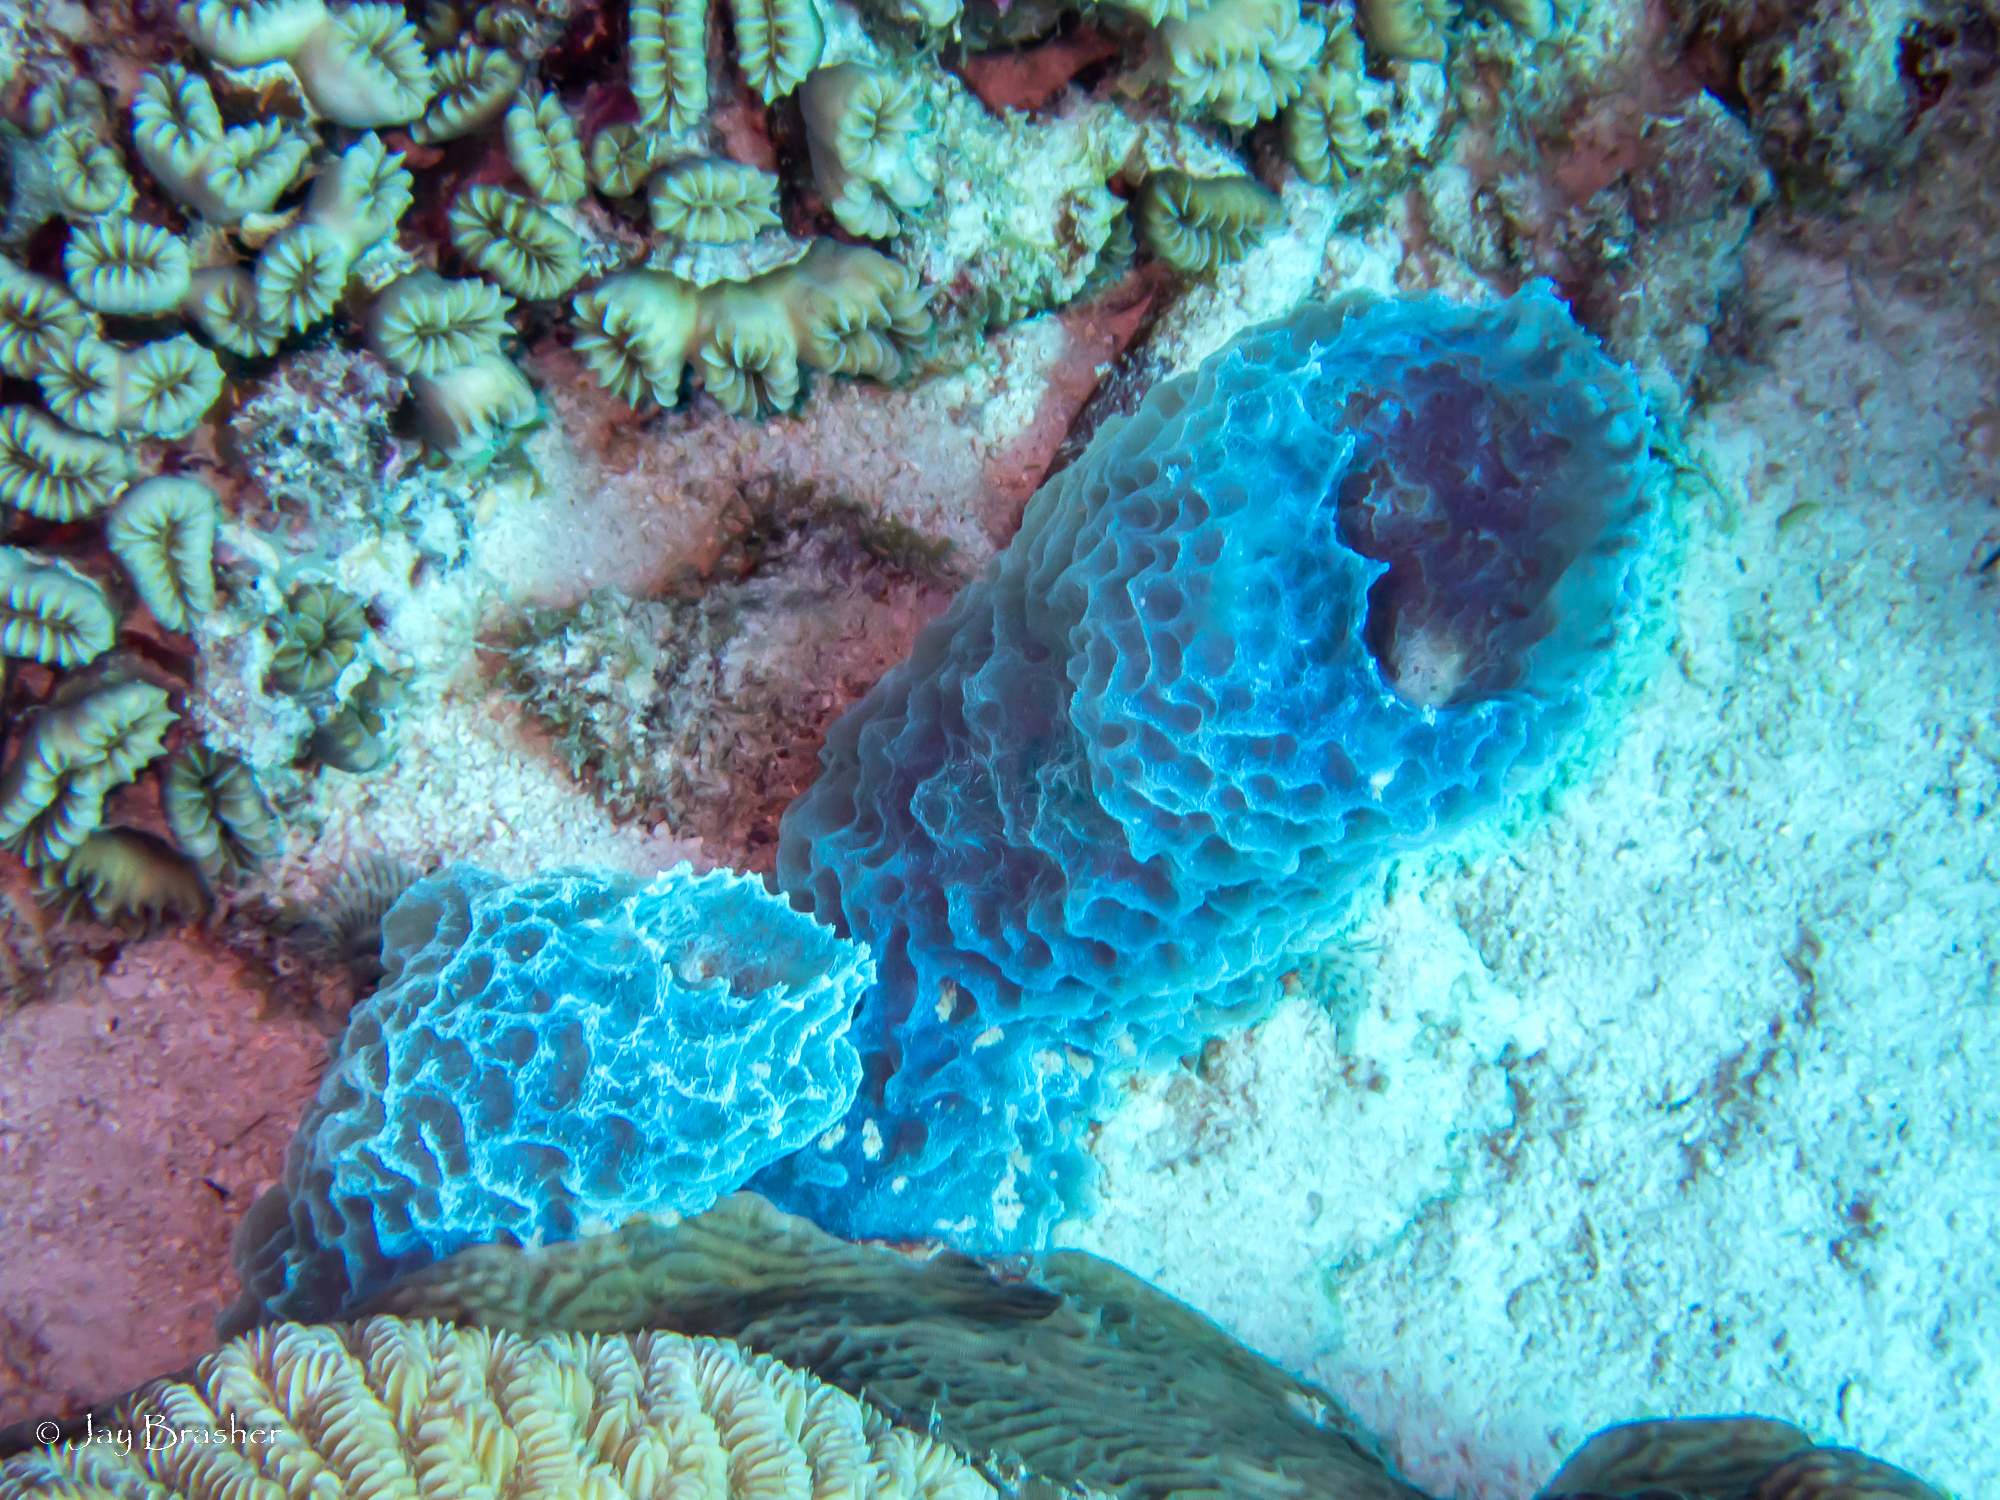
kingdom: Animalia
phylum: Porifera
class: Demospongiae
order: Haplosclerida
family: Callyspongiidae
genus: Callyspongia
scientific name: Callyspongia plicifera
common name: Azure vase sponge
